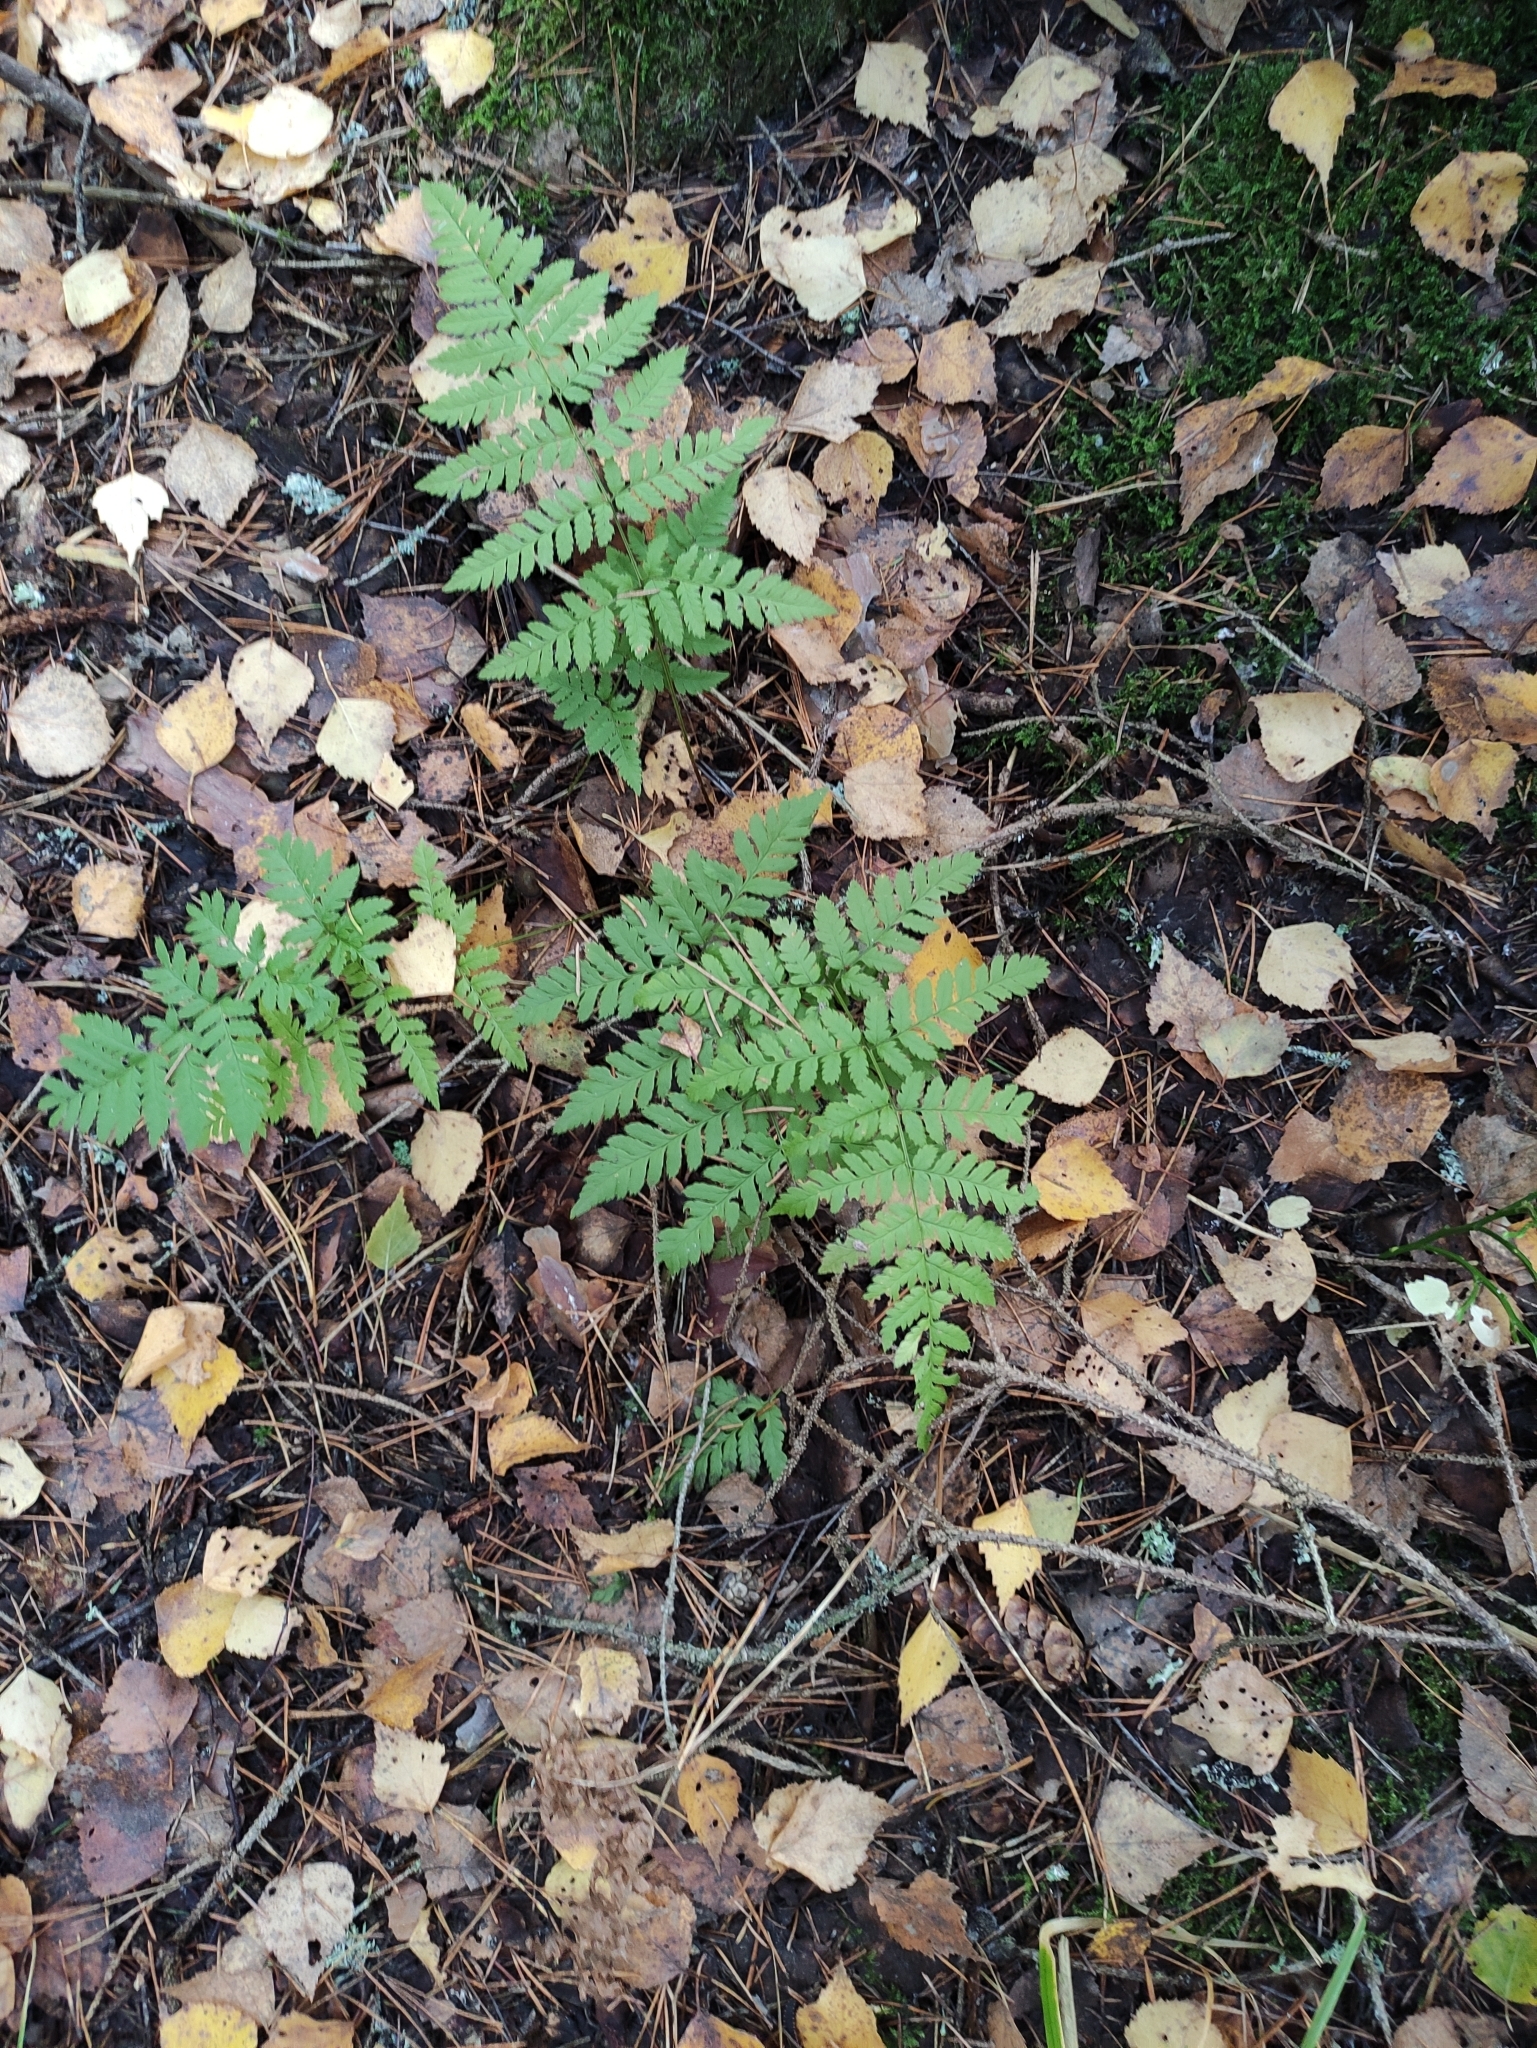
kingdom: Plantae
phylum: Tracheophyta
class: Polypodiopsida
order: Polypodiales
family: Dryopteridaceae
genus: Dryopteris
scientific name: Dryopteris carthusiana
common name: Narrow buckler-fern
